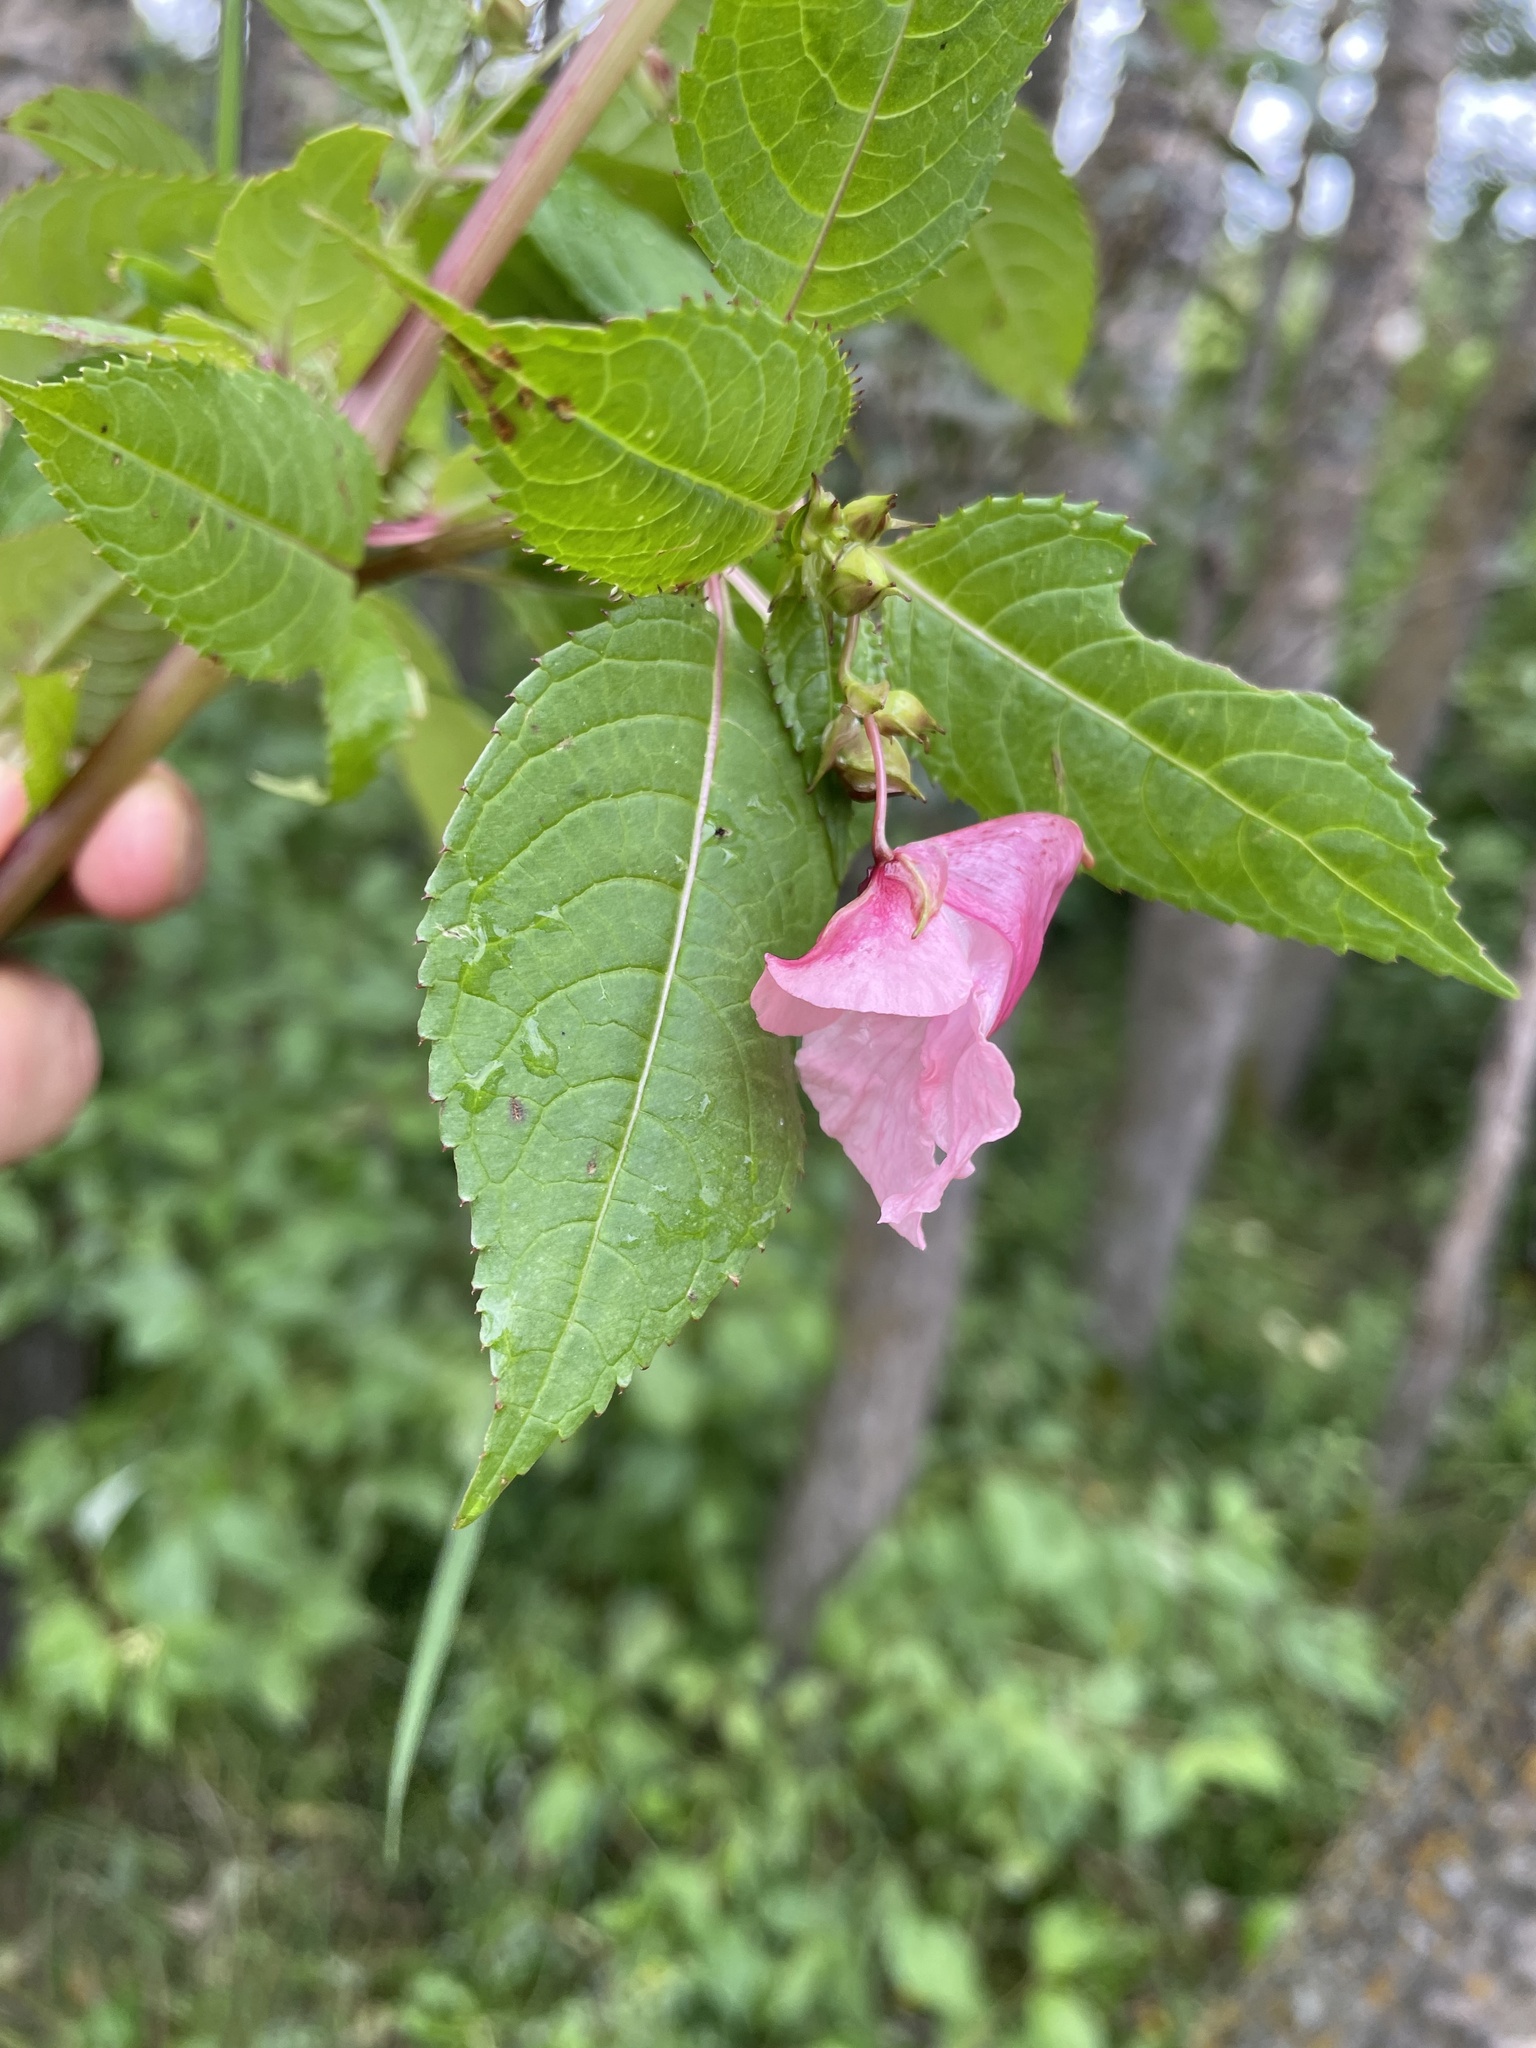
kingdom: Plantae
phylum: Tracheophyta
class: Magnoliopsida
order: Ericales
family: Balsaminaceae
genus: Impatiens
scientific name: Impatiens glandulifera
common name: Himalayan balsam
